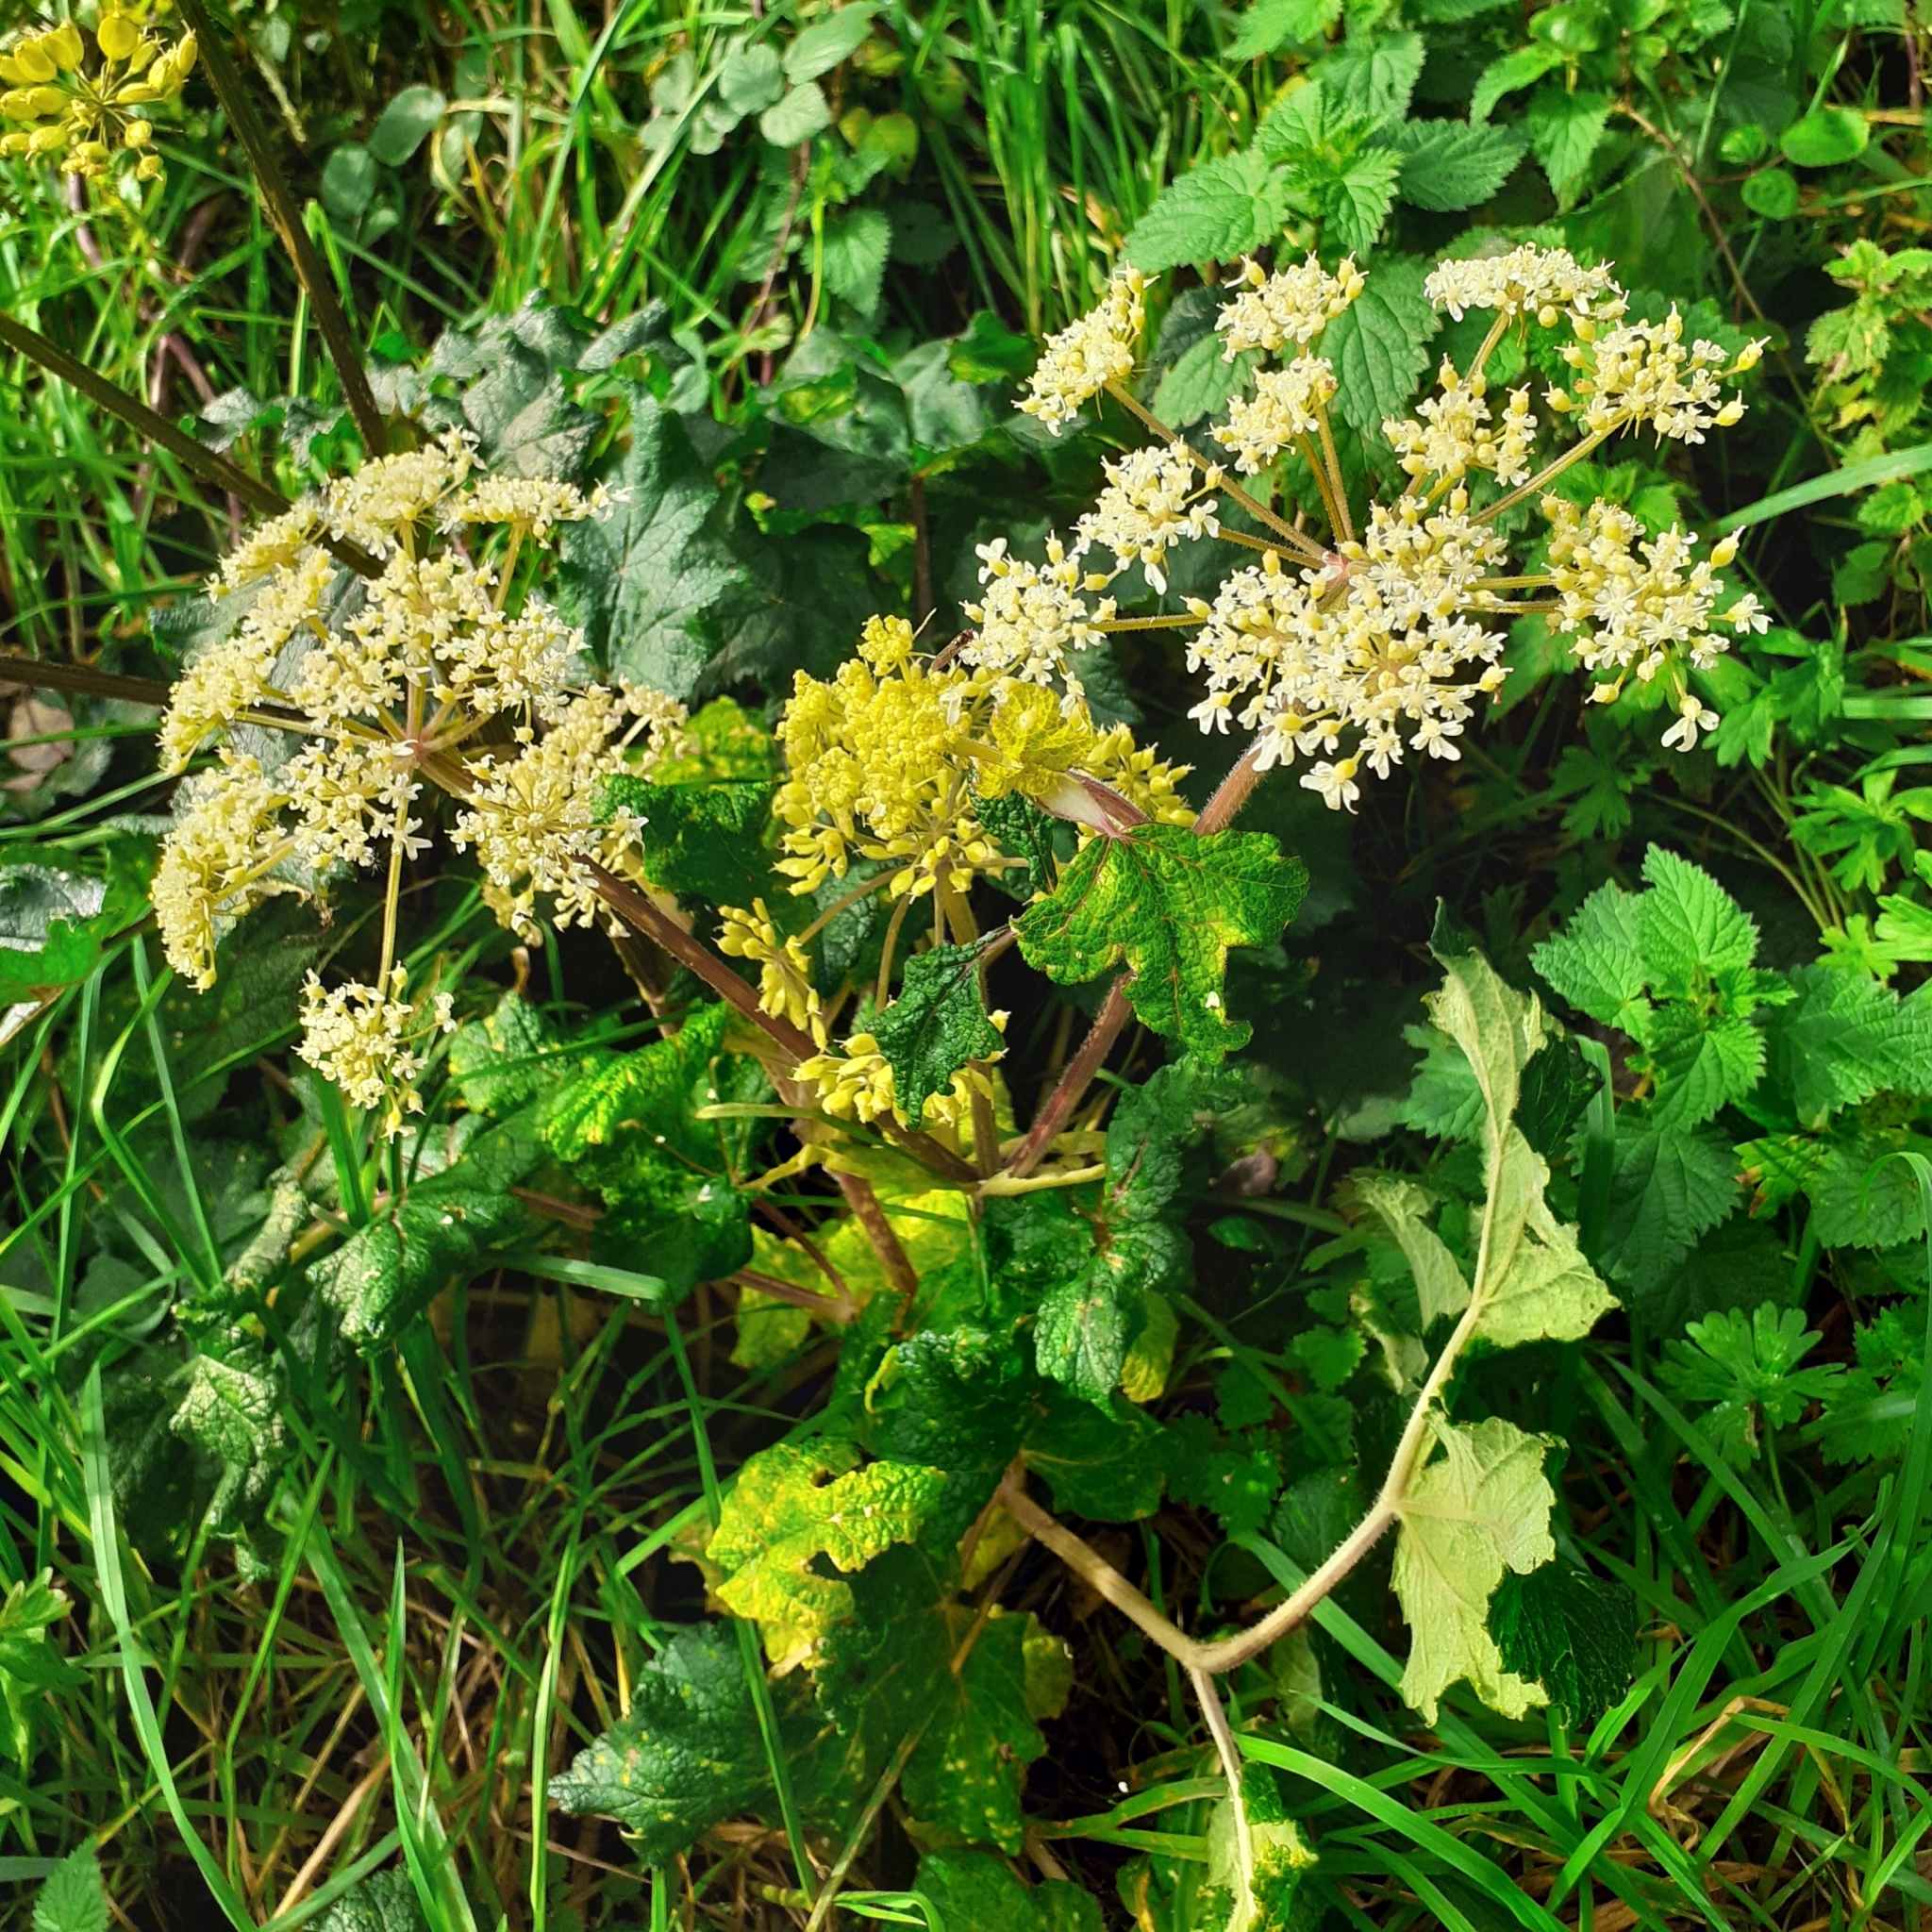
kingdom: Plantae
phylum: Tracheophyta
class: Magnoliopsida
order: Apiales
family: Apiaceae
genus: Heracleum
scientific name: Heracleum sphondylium
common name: Hogweed
